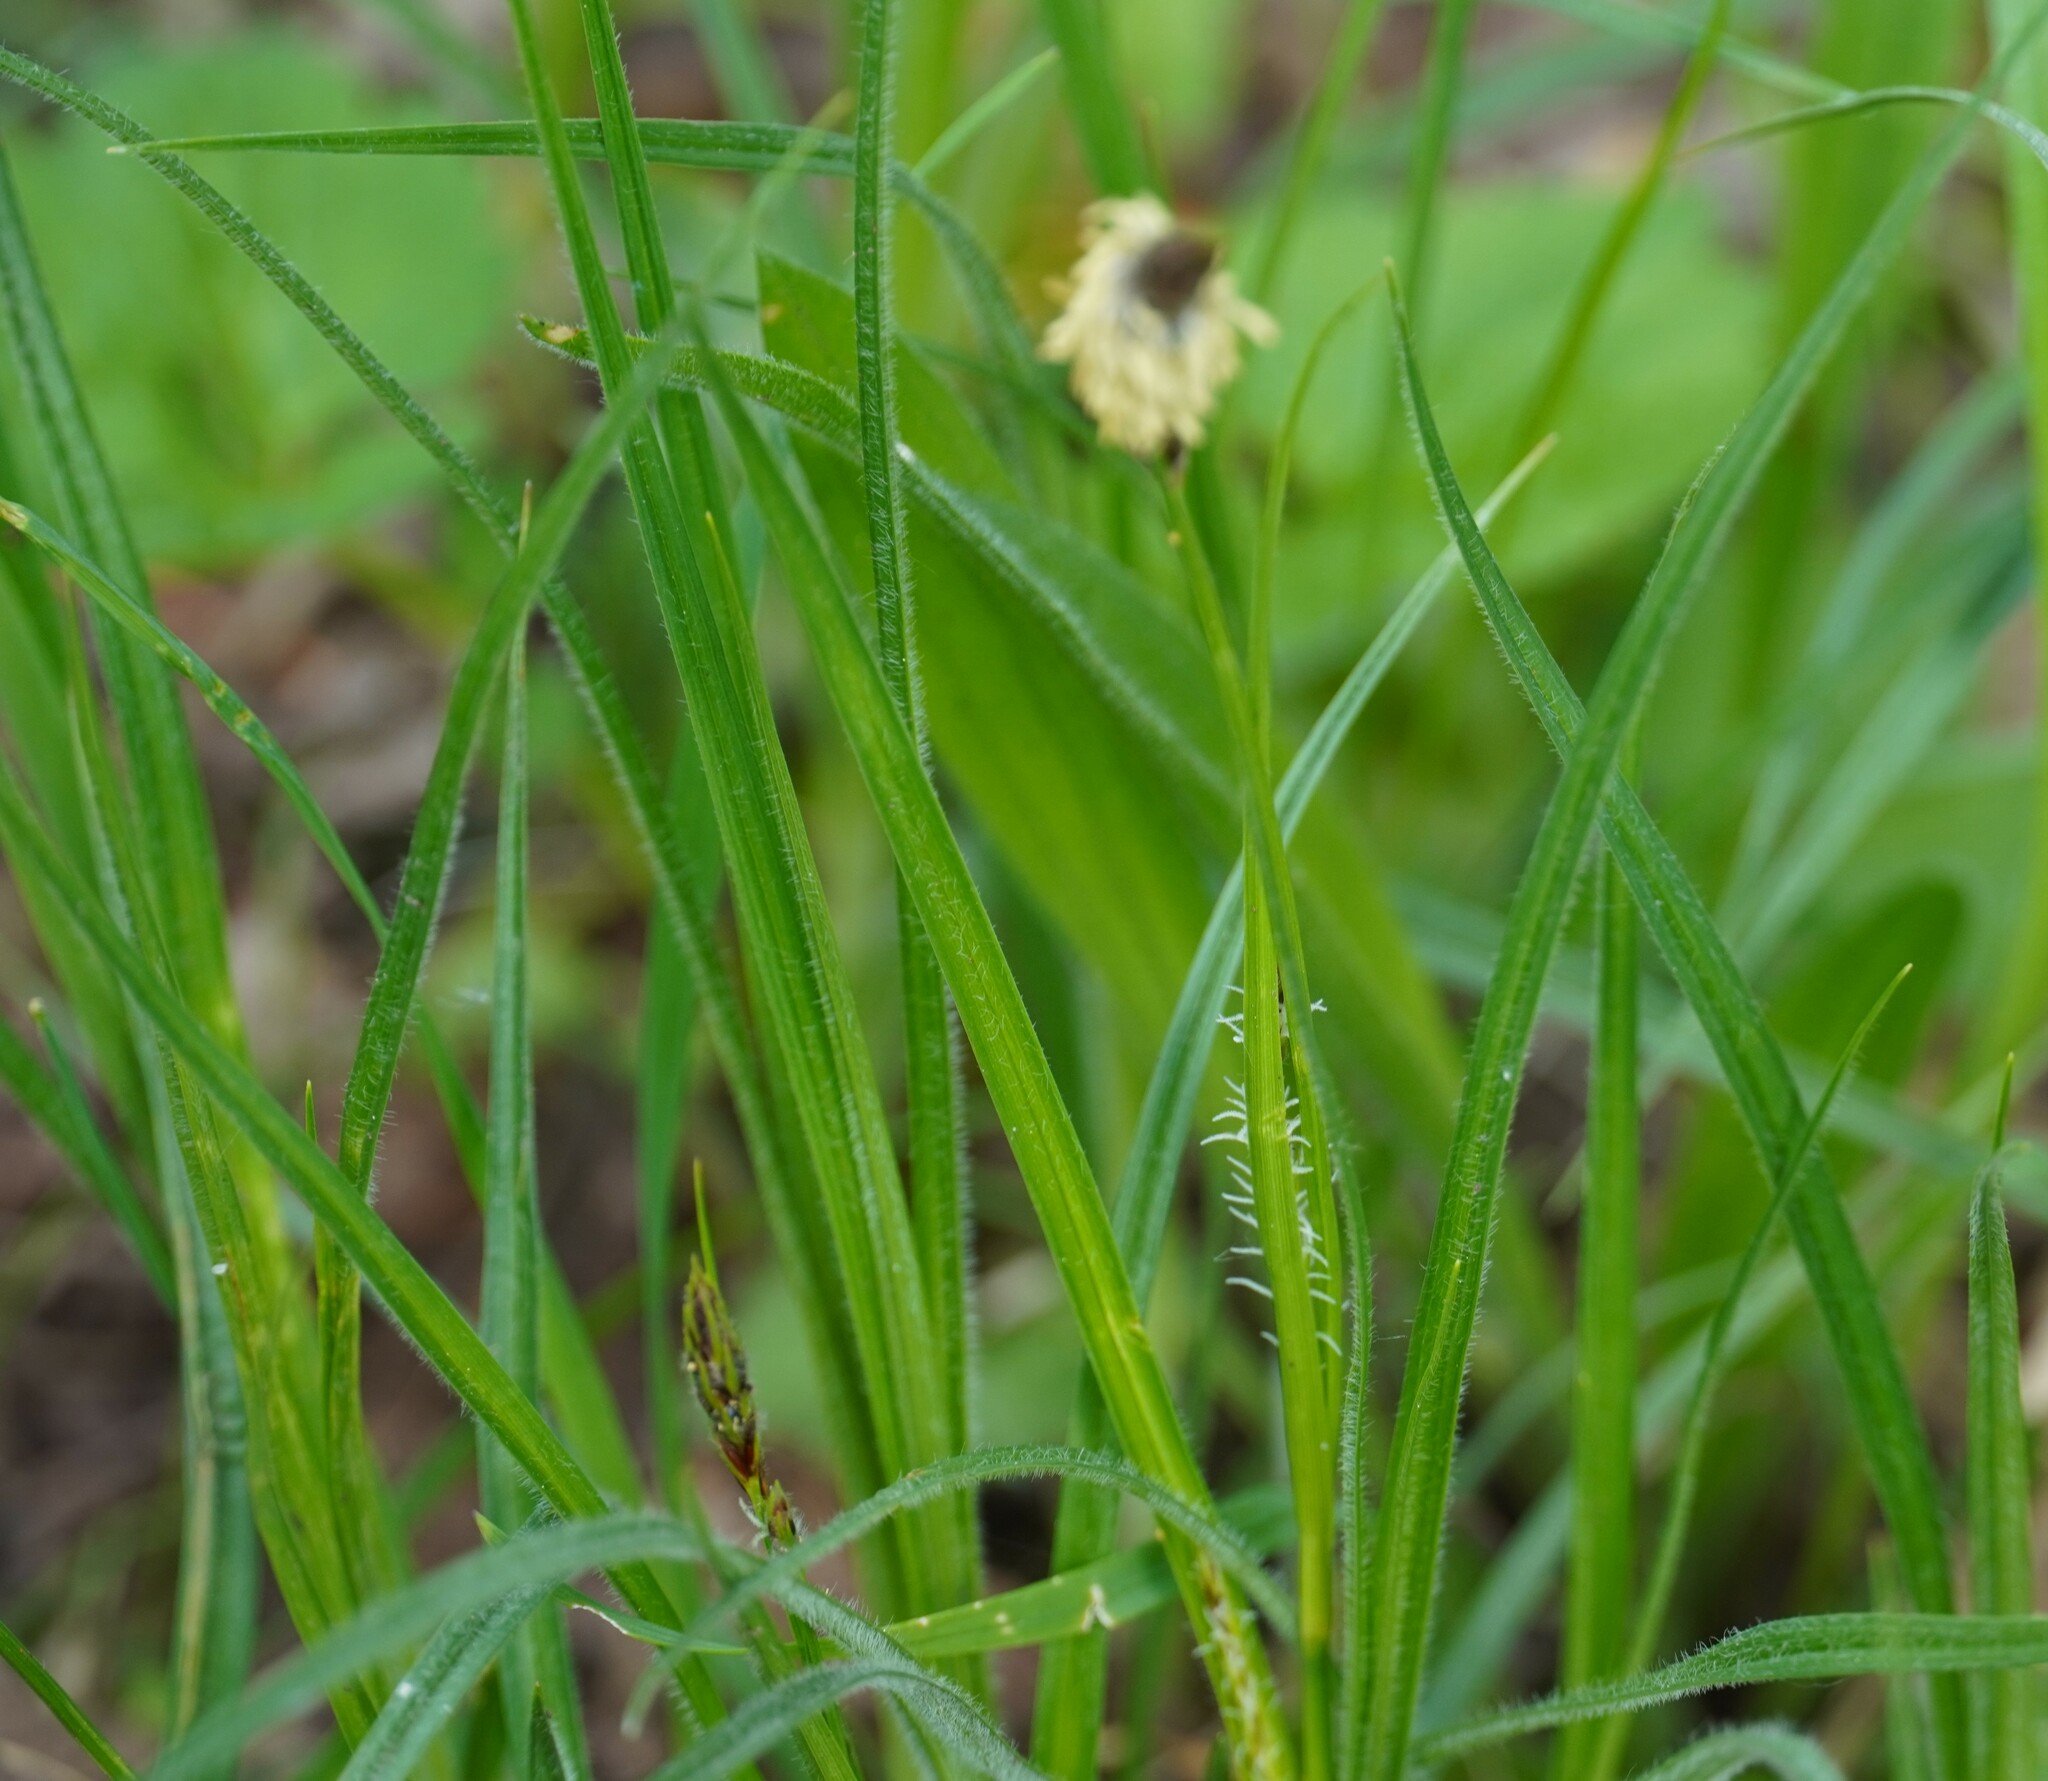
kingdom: Plantae
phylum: Tracheophyta
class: Liliopsida
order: Poales
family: Cyperaceae
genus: Carex
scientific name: Carex hirta
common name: Hairy sedge
